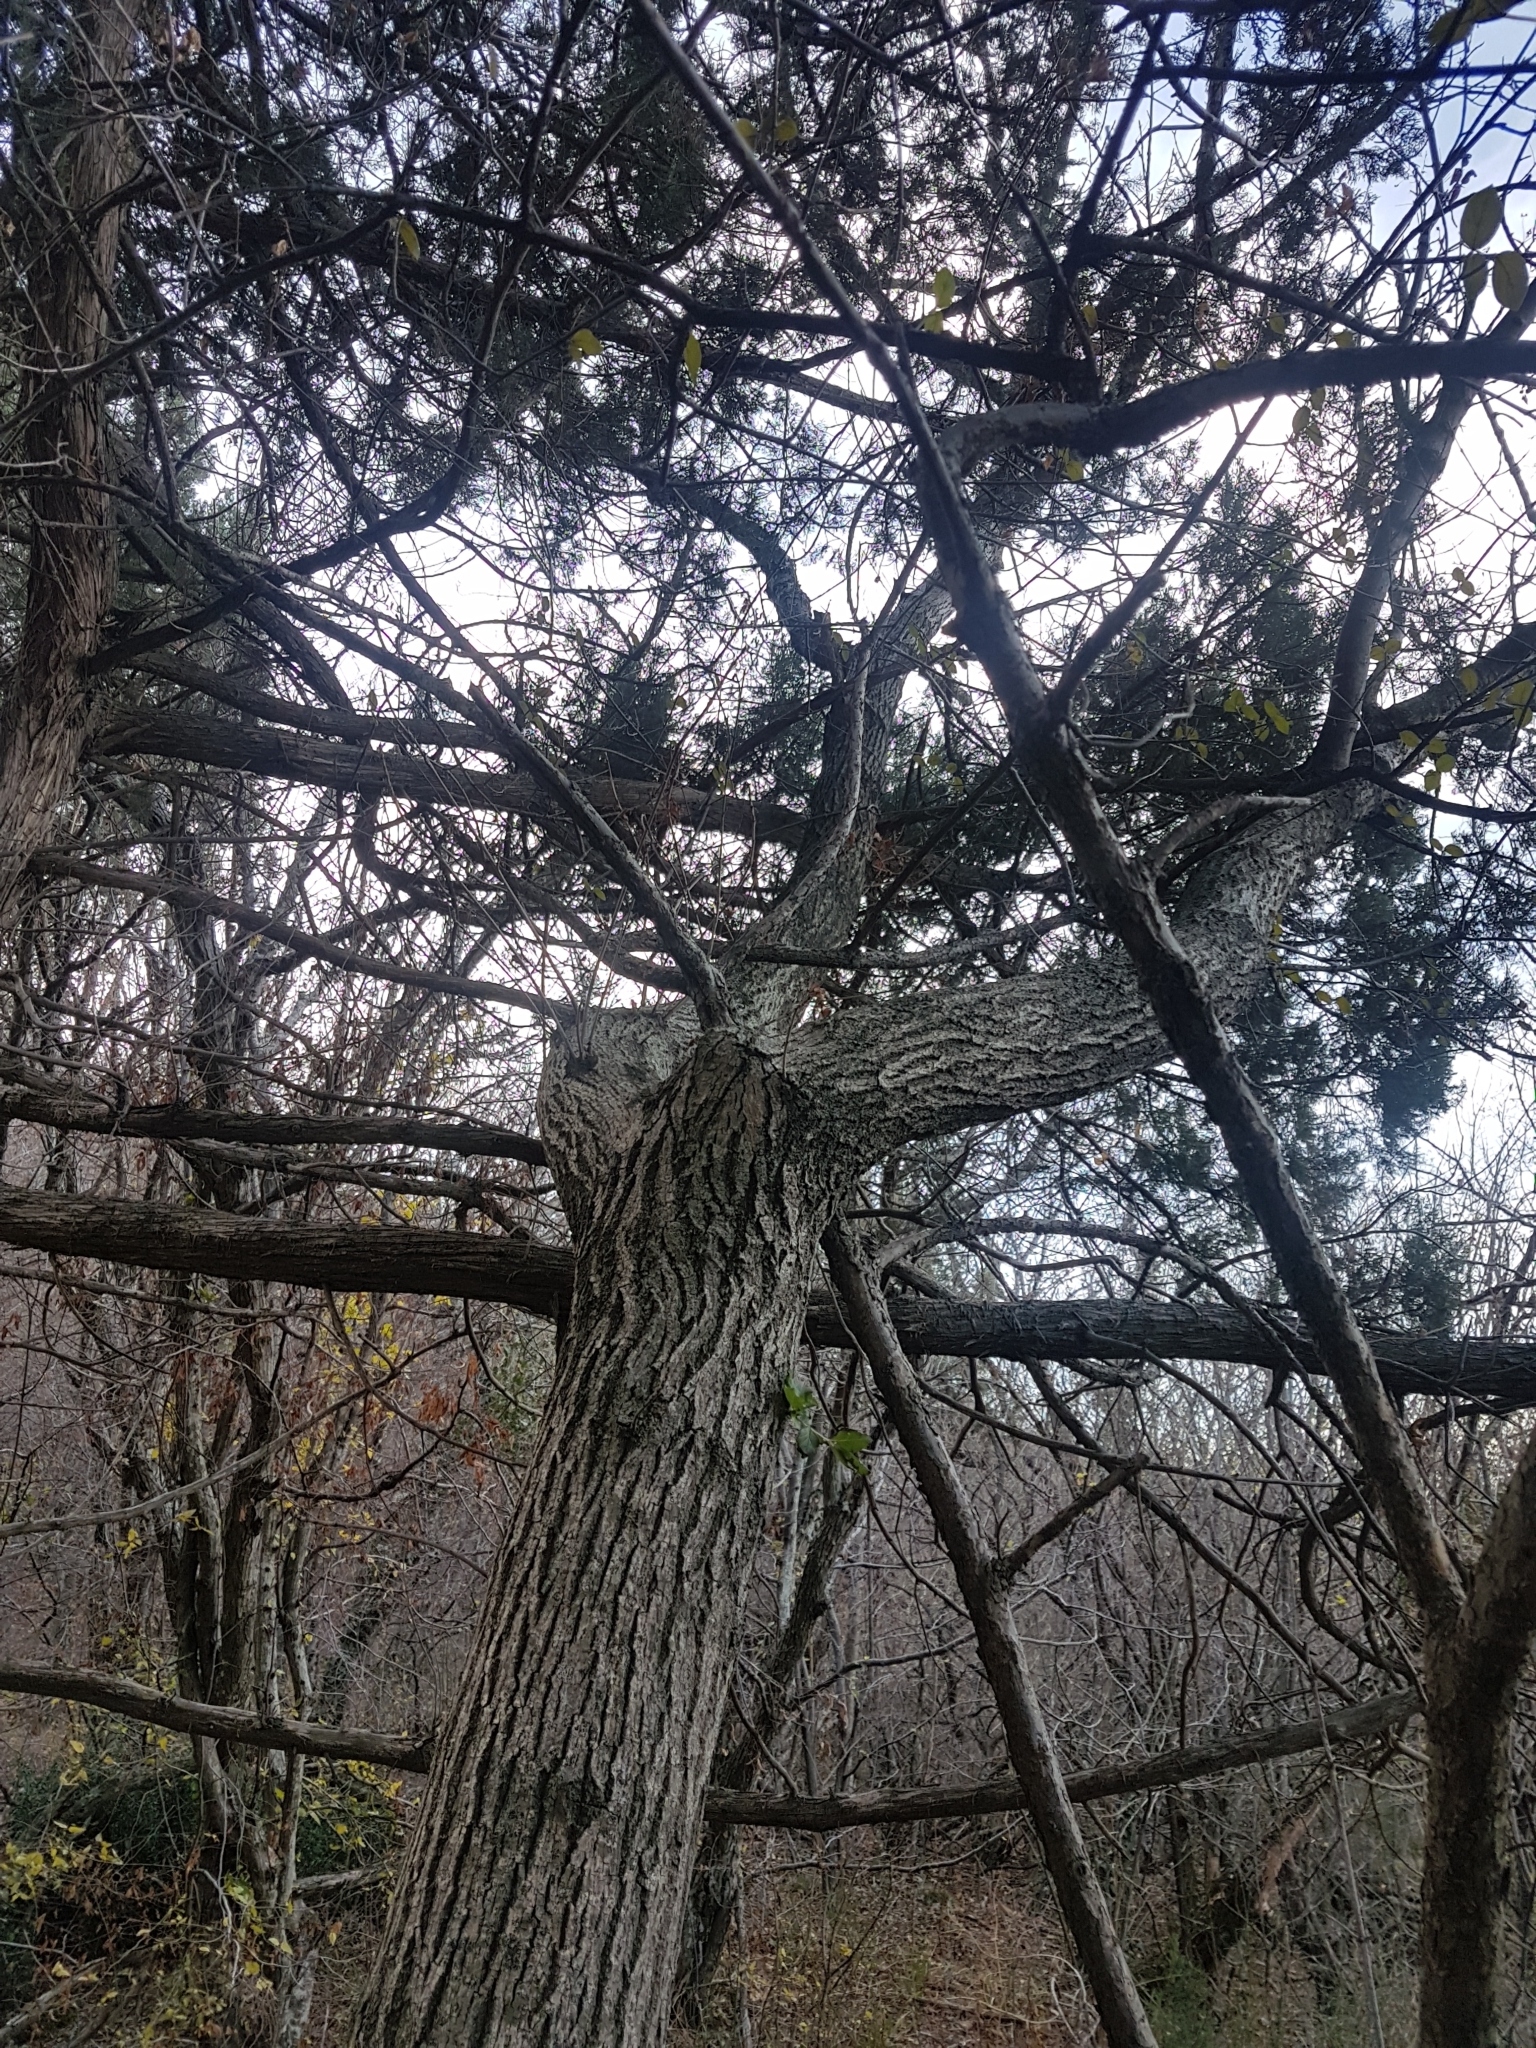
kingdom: Plantae
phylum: Tracheophyta
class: Pinopsida
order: Pinales
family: Cupressaceae
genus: Juniperus
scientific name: Juniperus excelsa
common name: Crimean juniper
